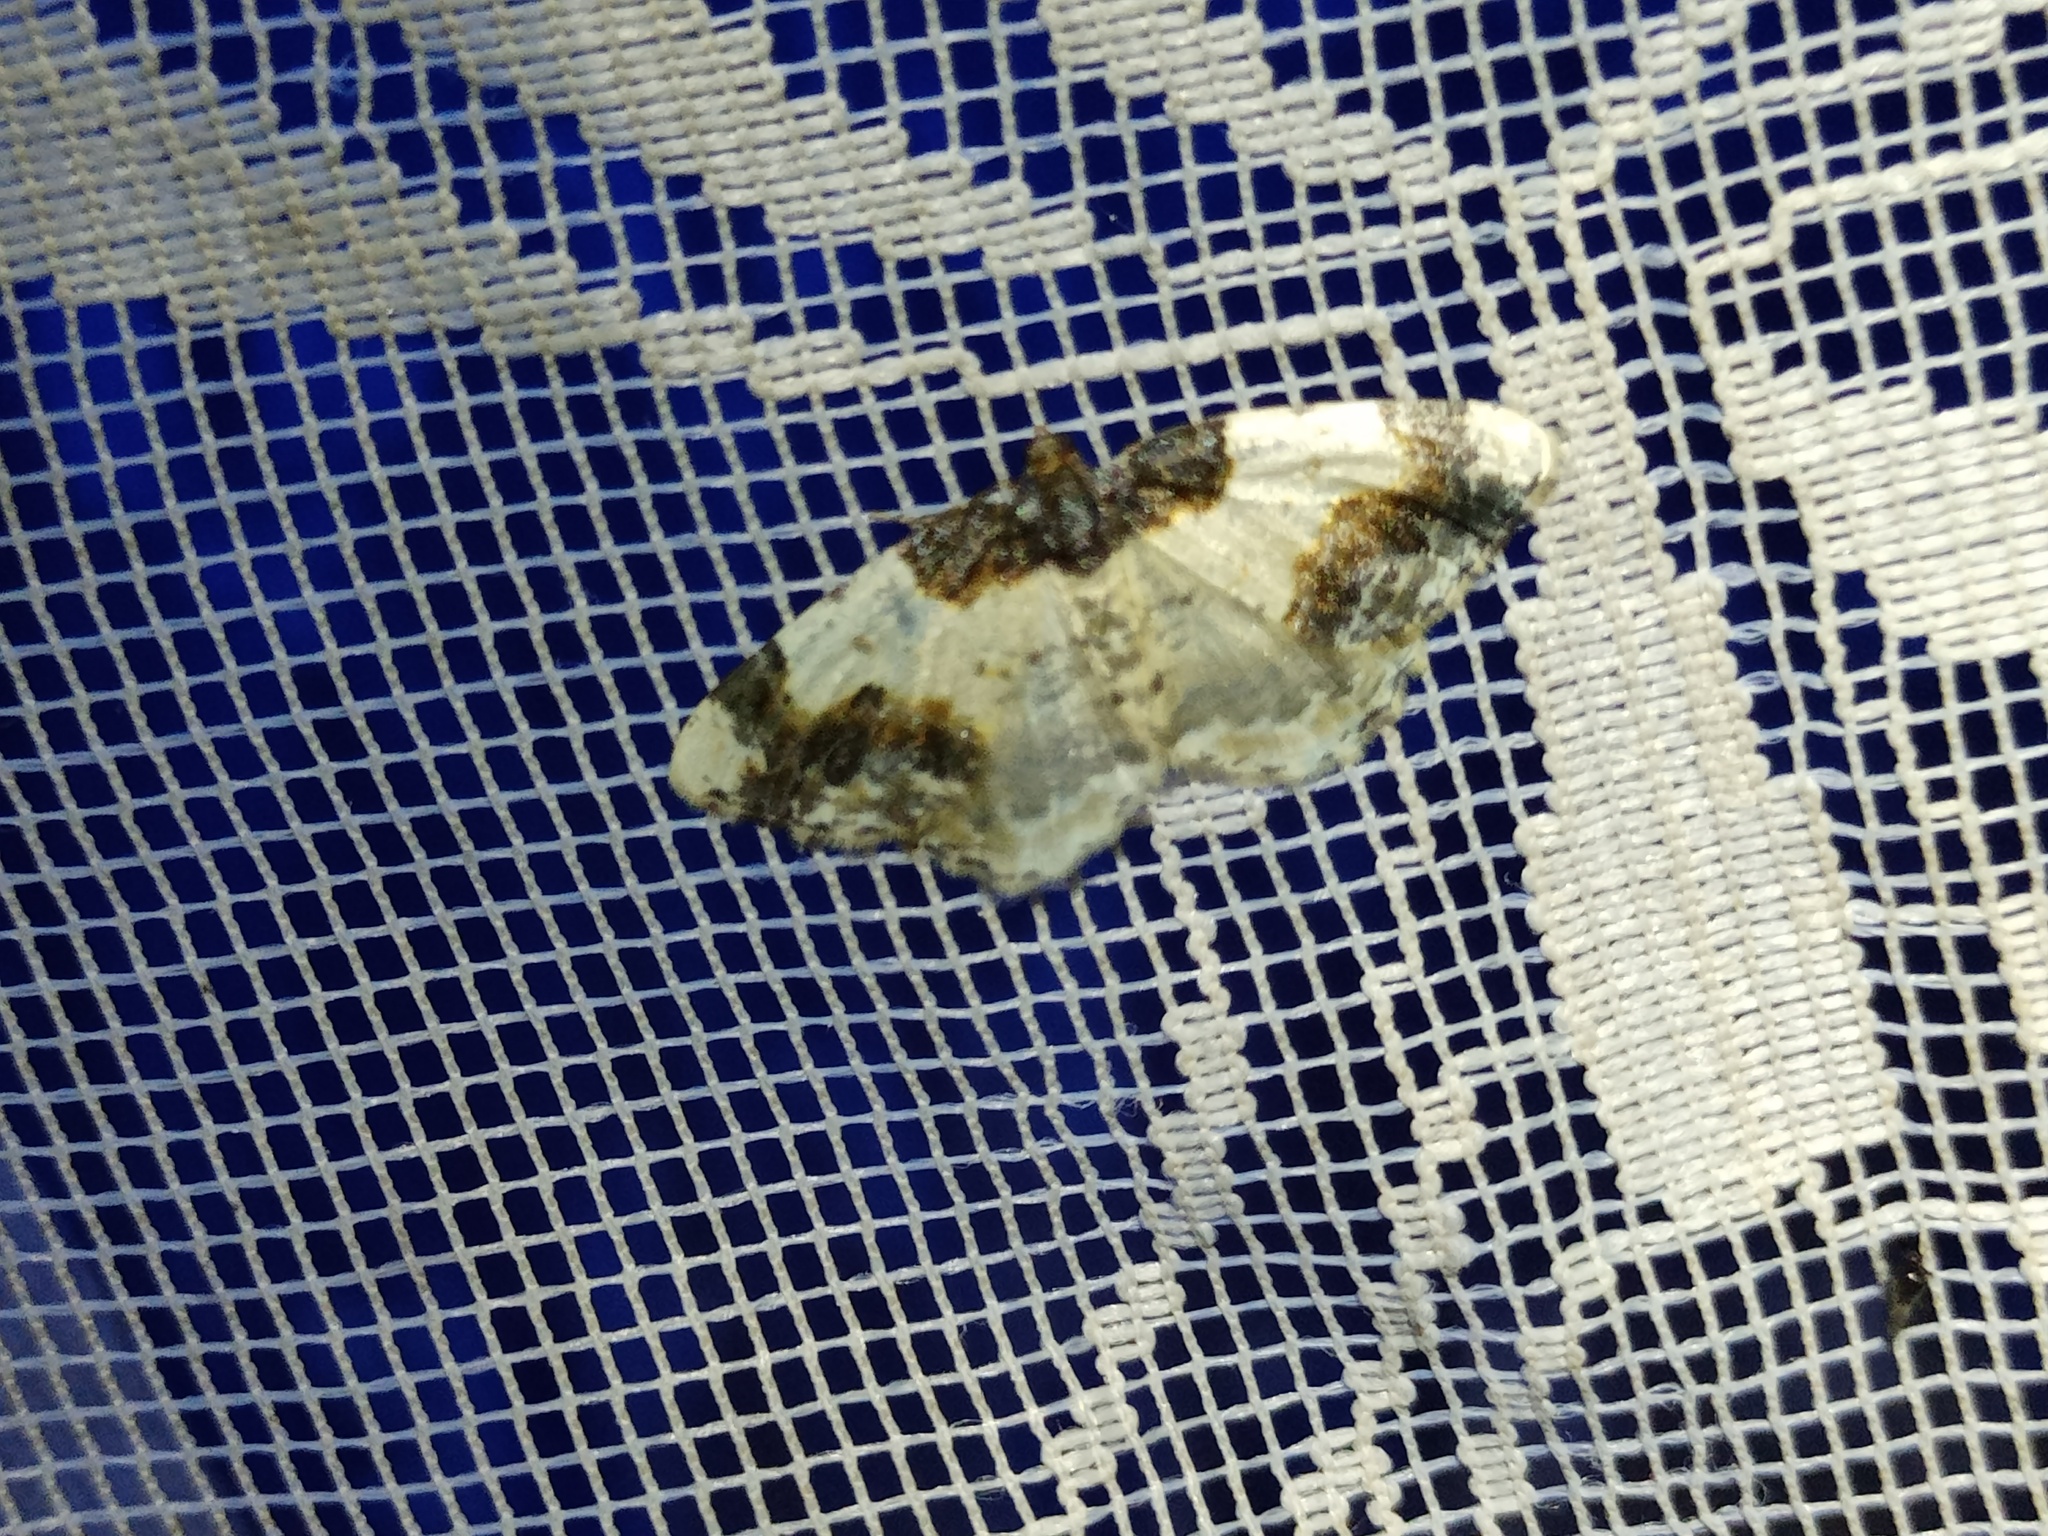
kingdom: Animalia
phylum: Arthropoda
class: Insecta
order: Lepidoptera
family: Geometridae
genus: Ligdia
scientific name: Ligdia adustata
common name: Scorched carpet
